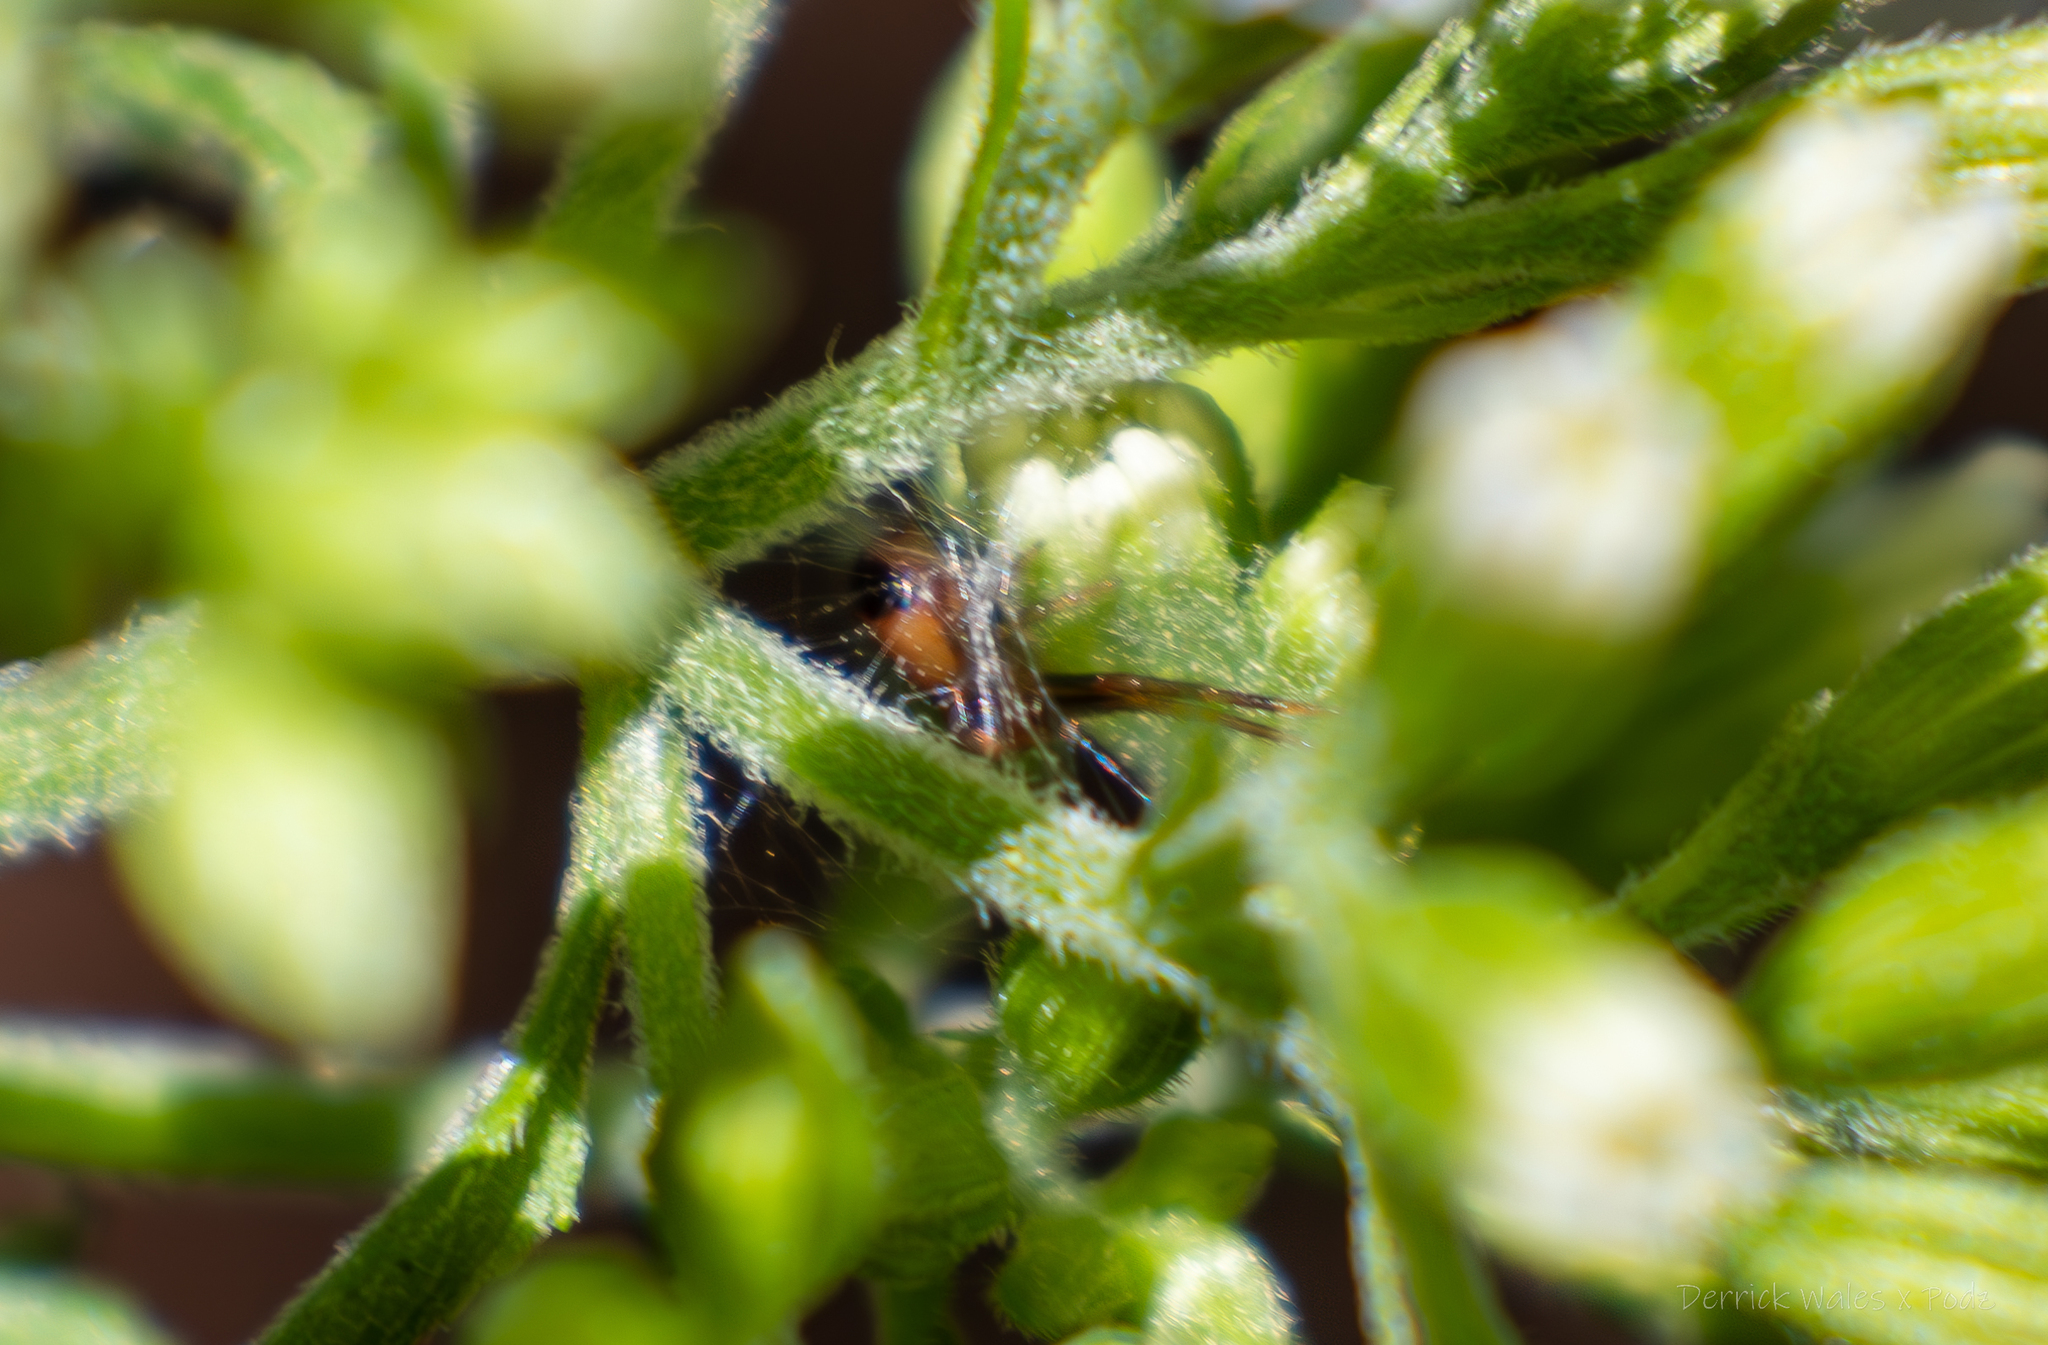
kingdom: Animalia
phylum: Arthropoda
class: Arachnida
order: Araneae
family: Thomisidae
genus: Synema
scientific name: Synema parvulum
